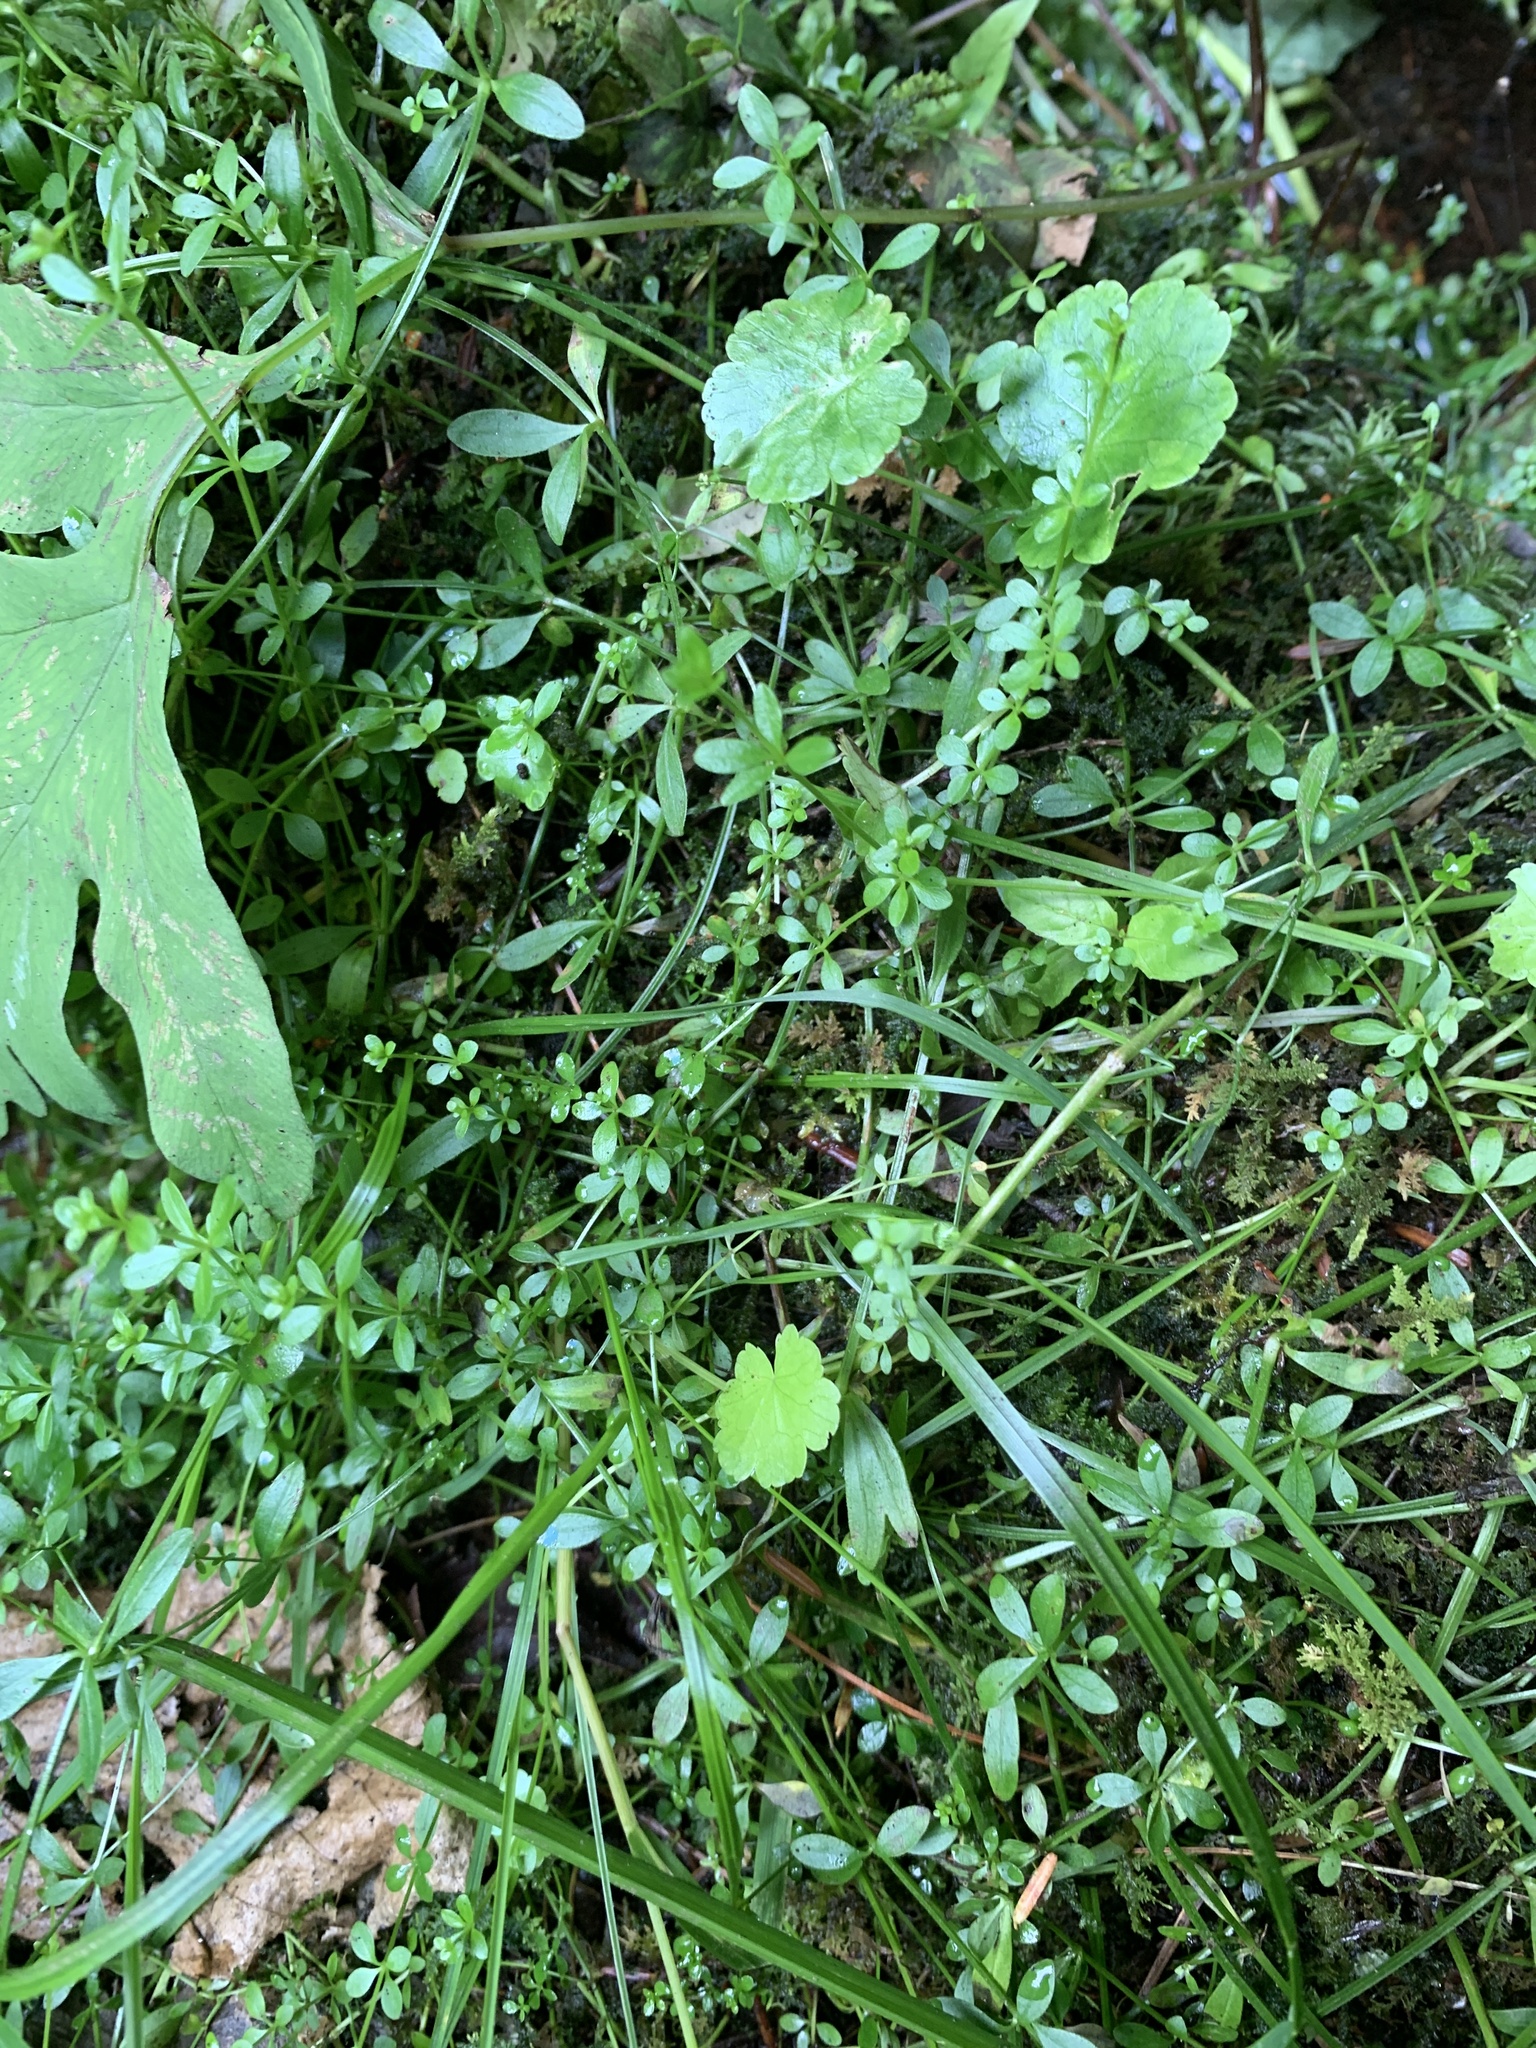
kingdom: Plantae
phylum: Tracheophyta
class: Magnoliopsida
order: Gentianales
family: Rubiaceae
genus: Galium
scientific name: Galium palustre
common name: Common marsh-bedstraw
